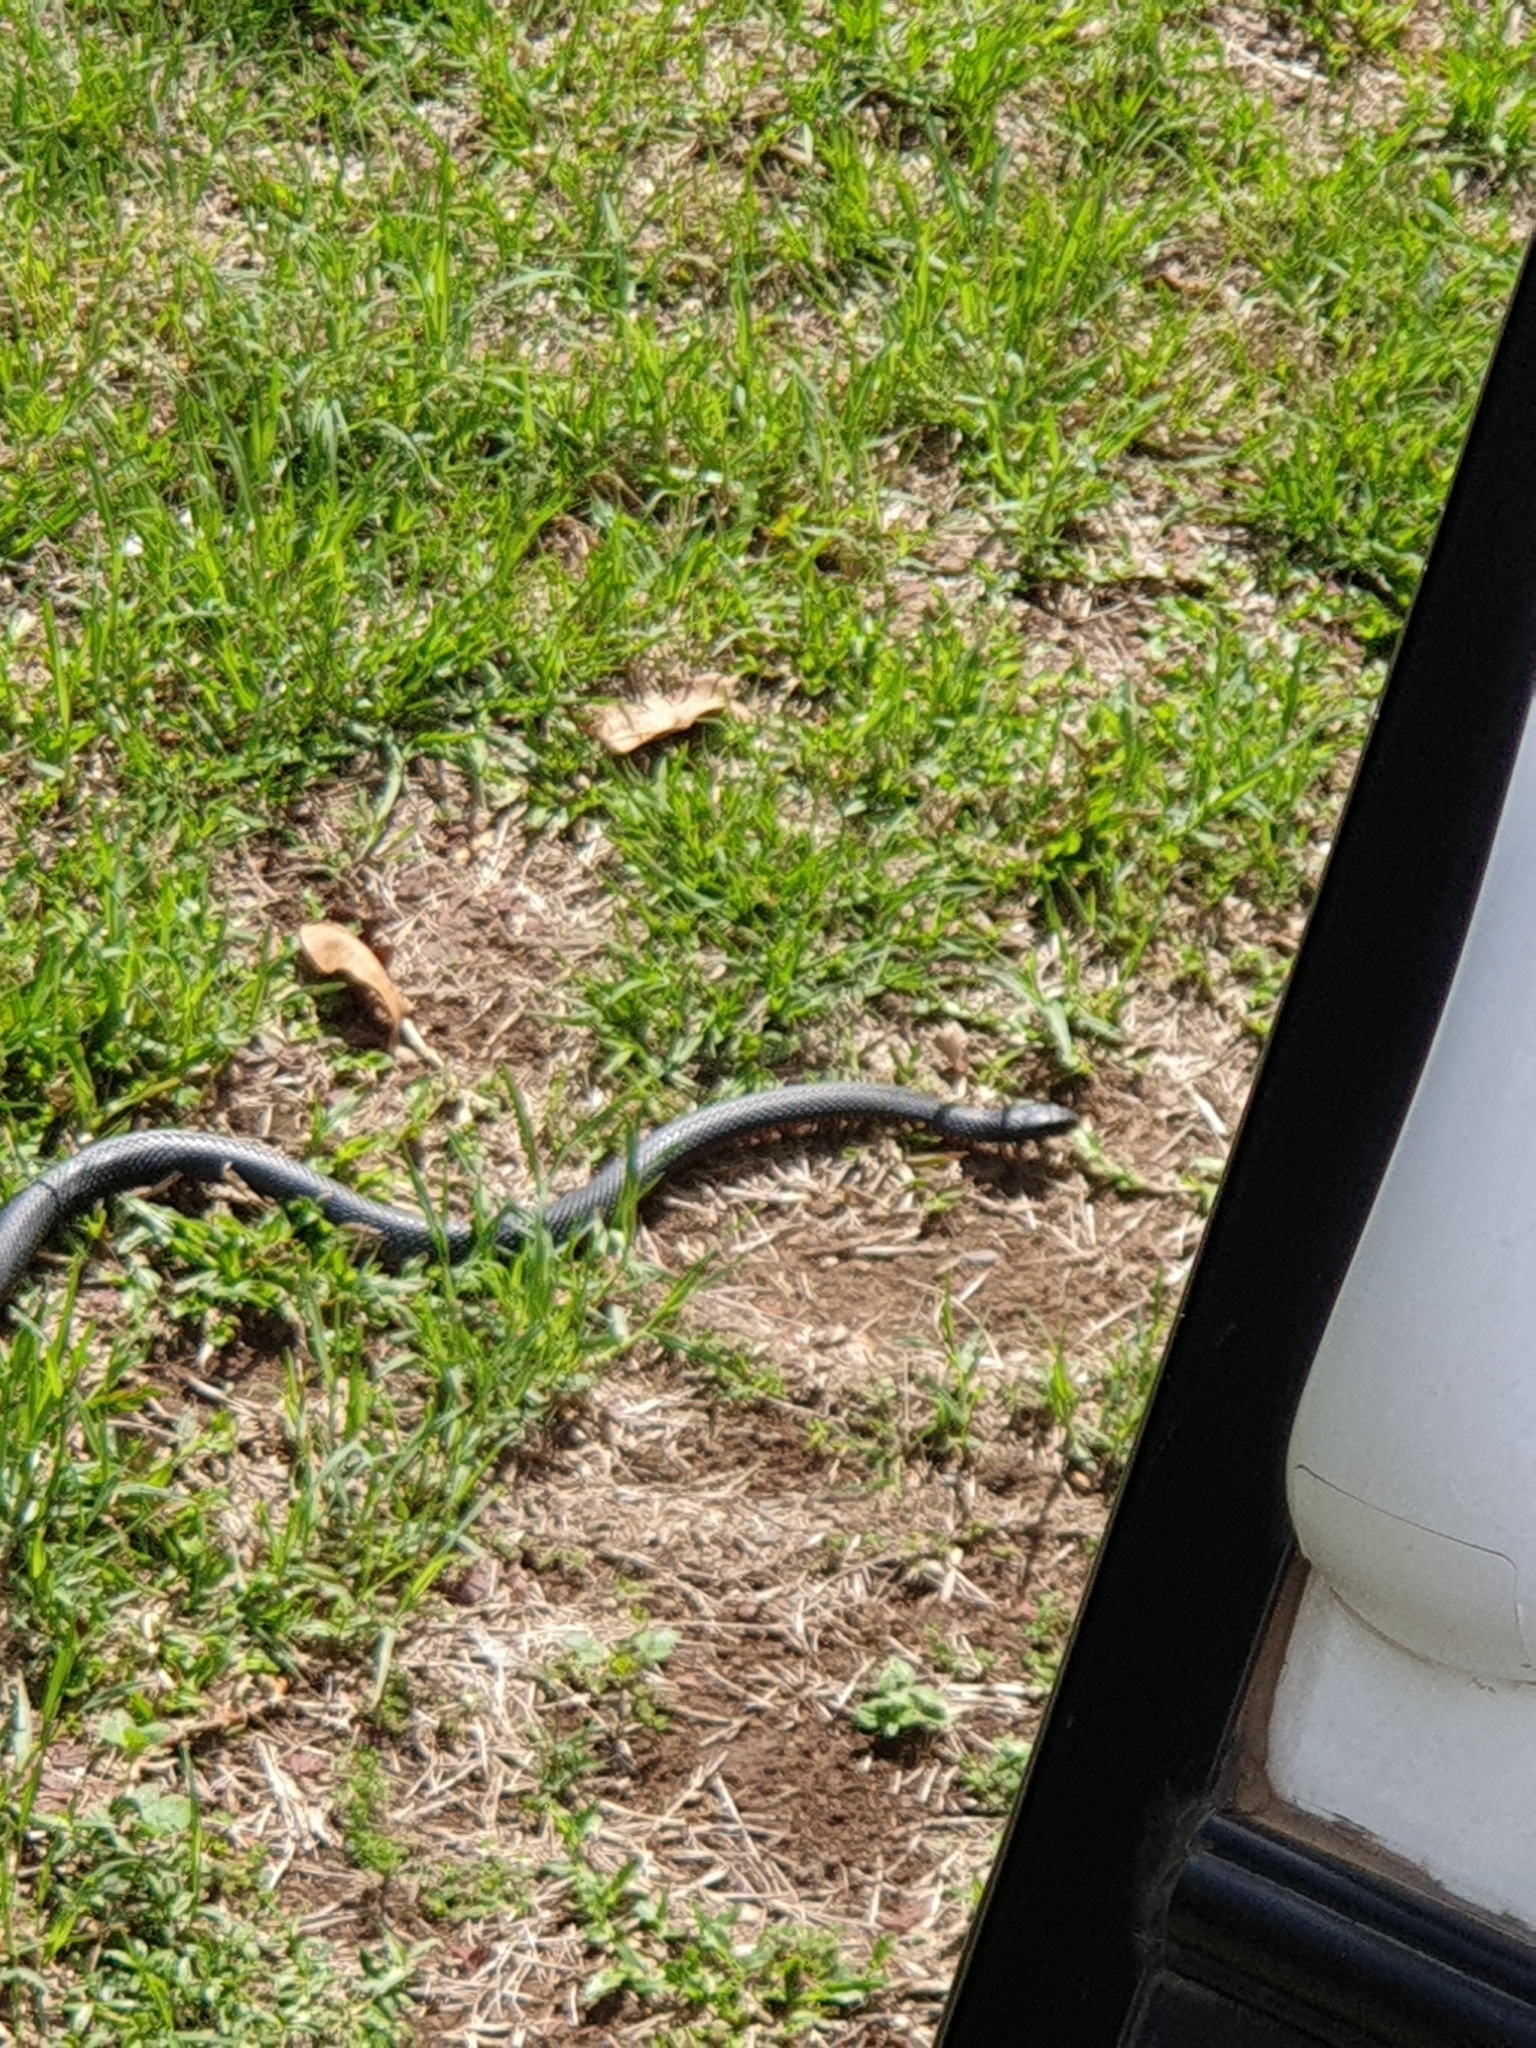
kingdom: Animalia
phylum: Chordata
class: Squamata
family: Elapidae
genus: Pseudechis
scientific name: Pseudechis porphyriacus
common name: Australian black snake
